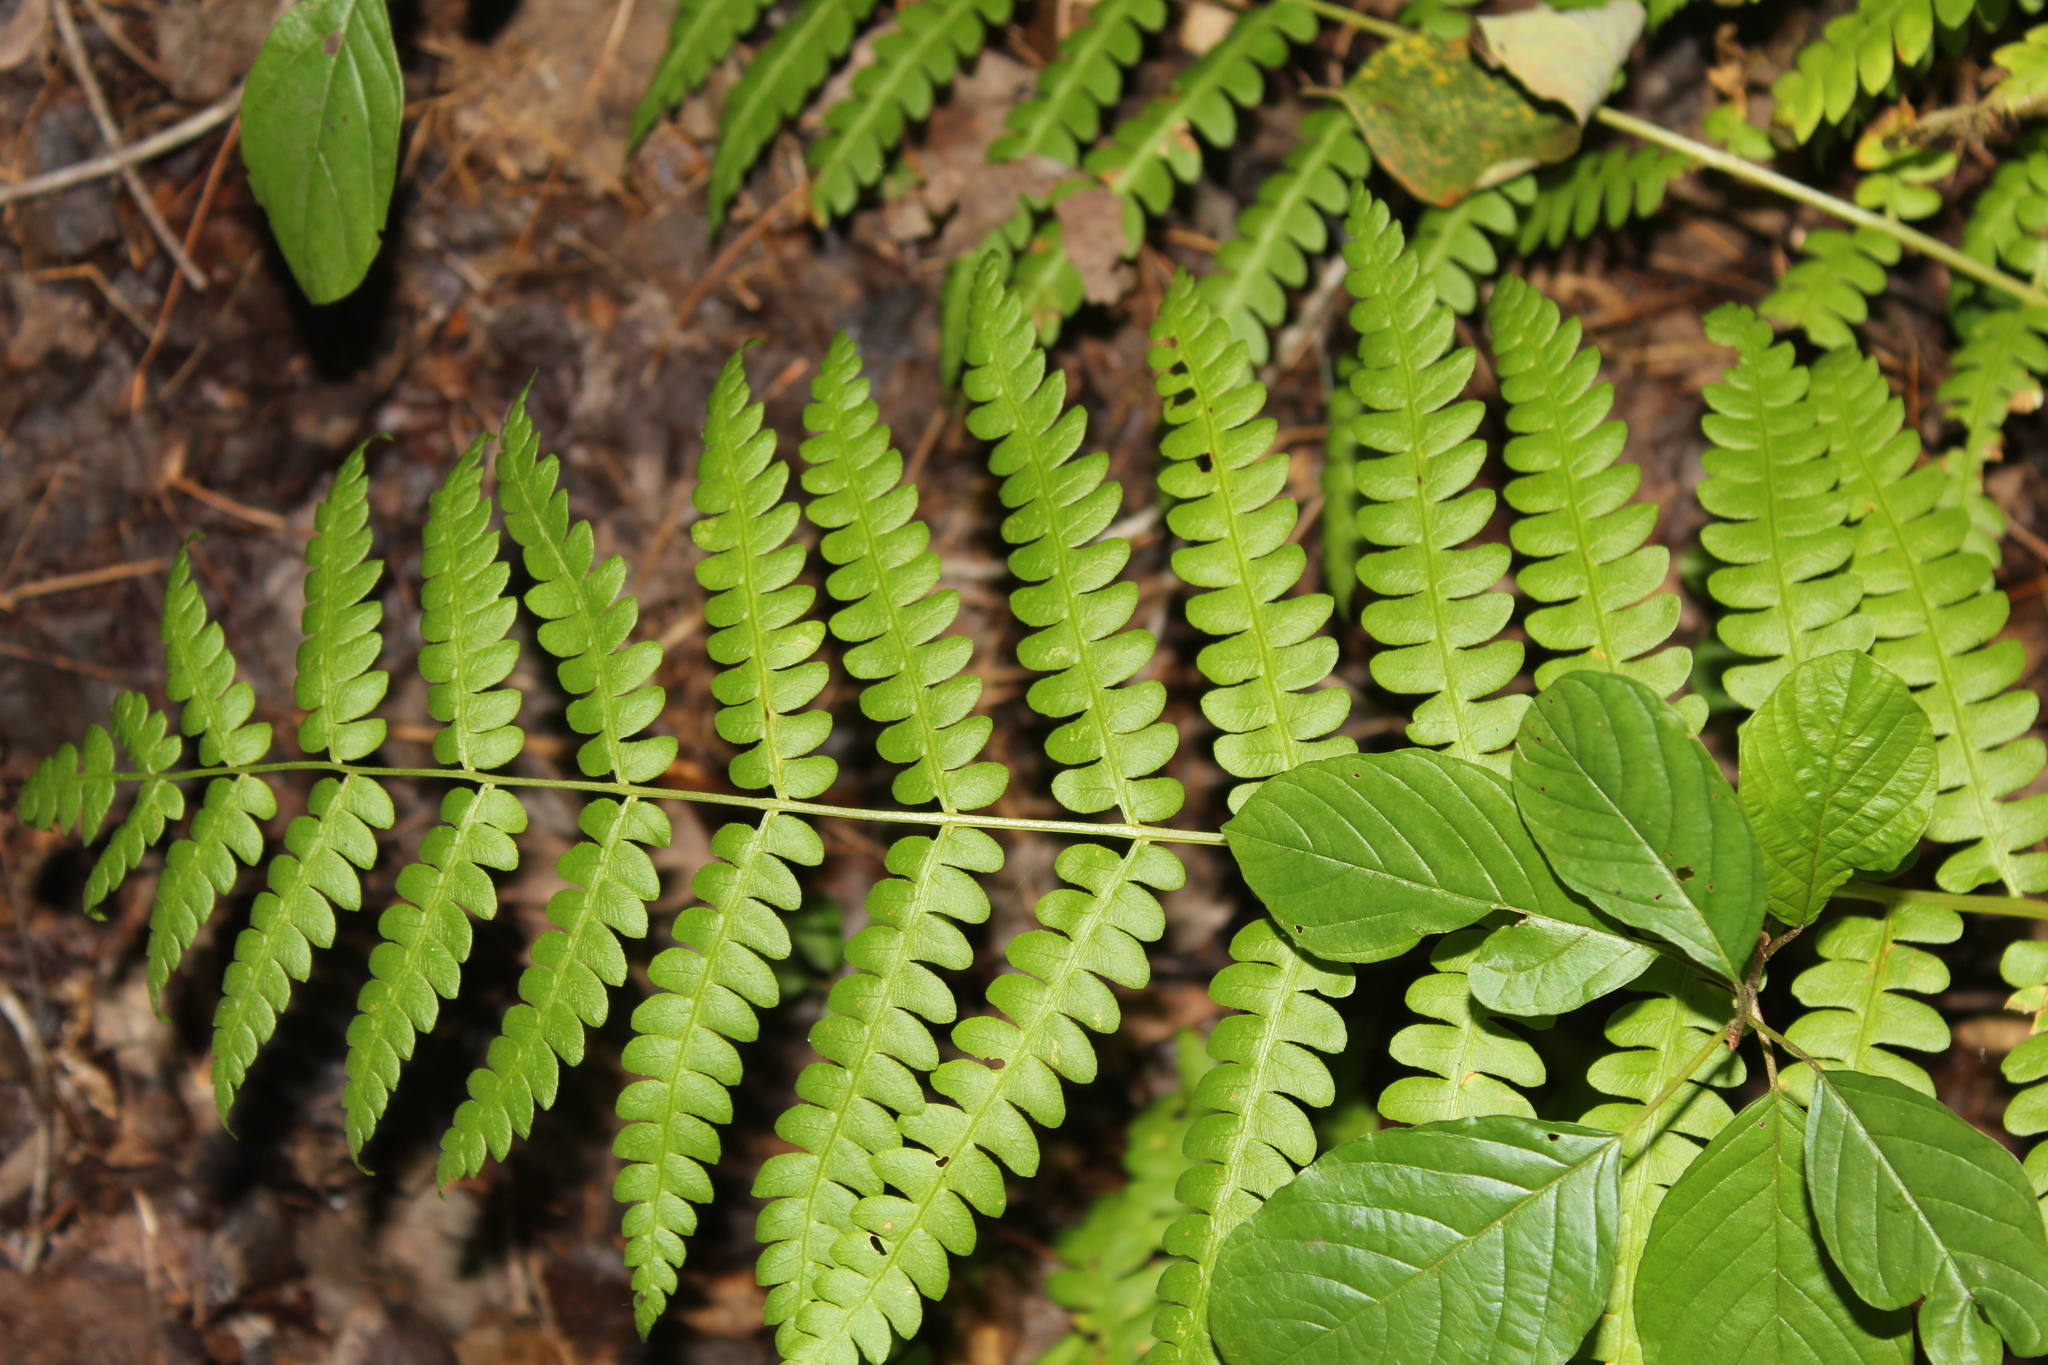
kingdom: Plantae
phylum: Tracheophyta
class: Polypodiopsida
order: Osmundales
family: Osmundaceae
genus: Osmundastrum
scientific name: Osmundastrum cinnamomeum
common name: Cinnamon fern
